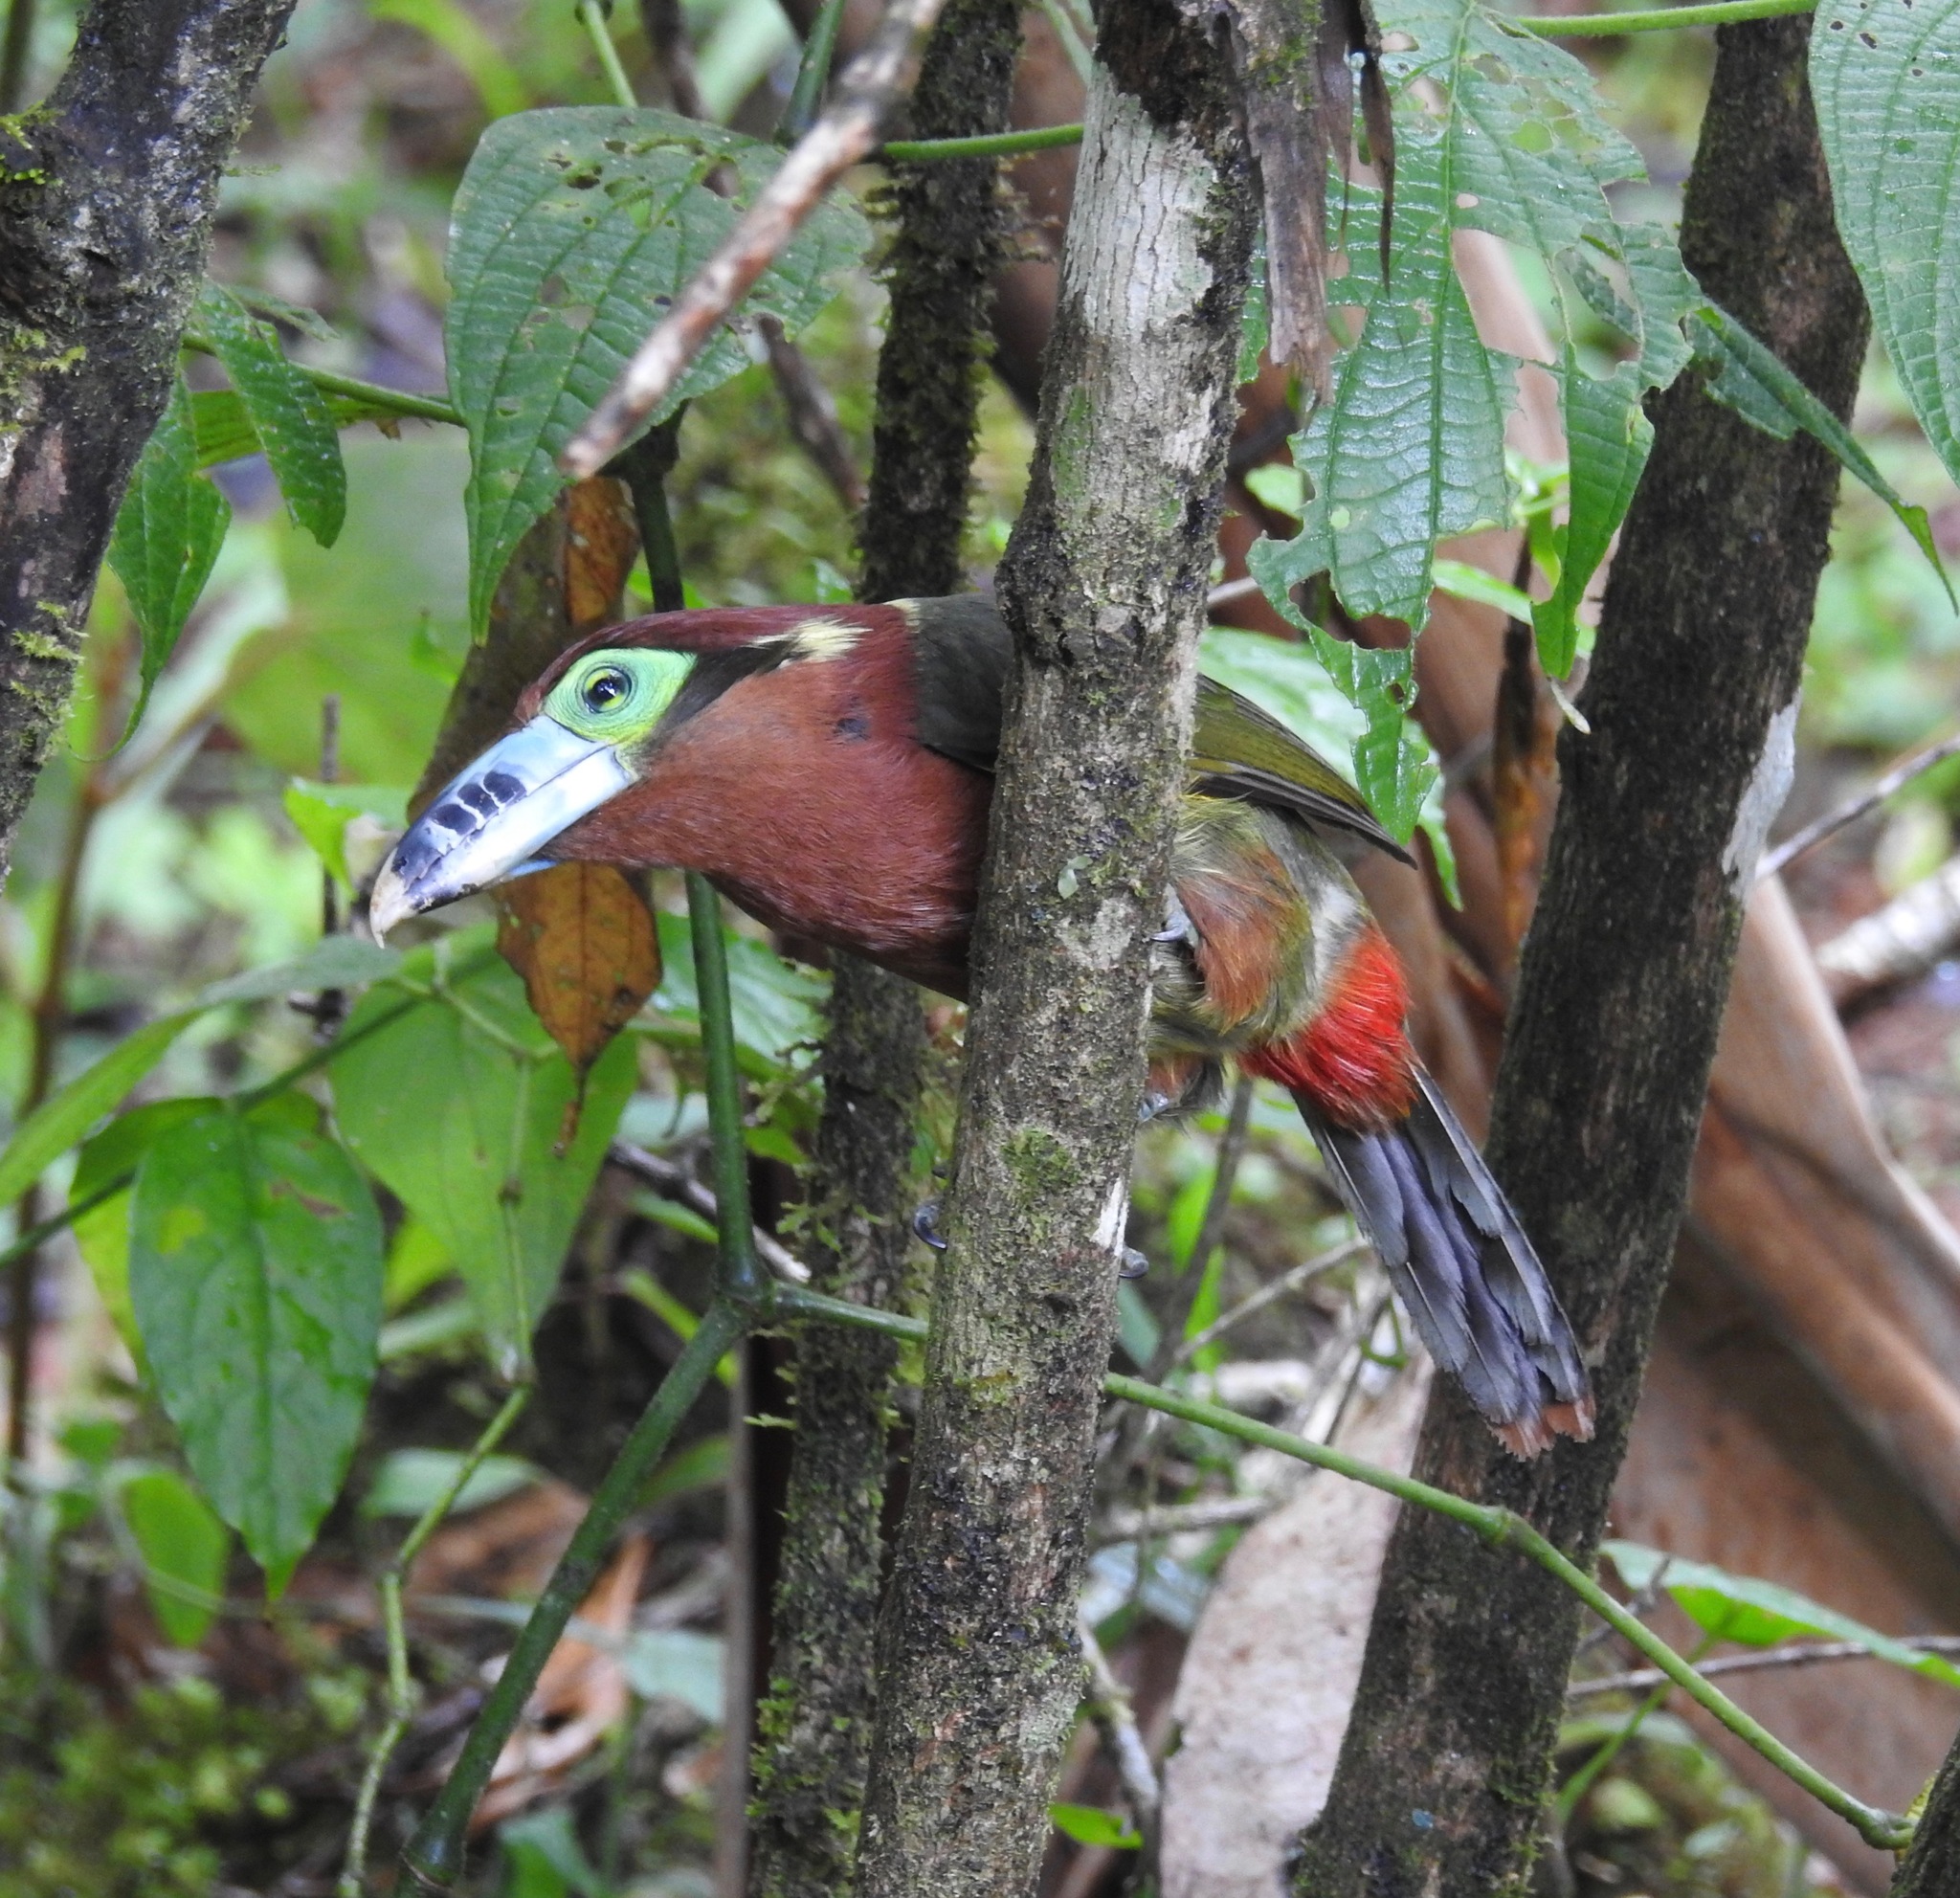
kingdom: Animalia
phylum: Chordata
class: Aves
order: Piciformes
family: Ramphastidae
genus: Selenidera
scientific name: Selenidera maculirostris
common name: Spot-billed toucanet
